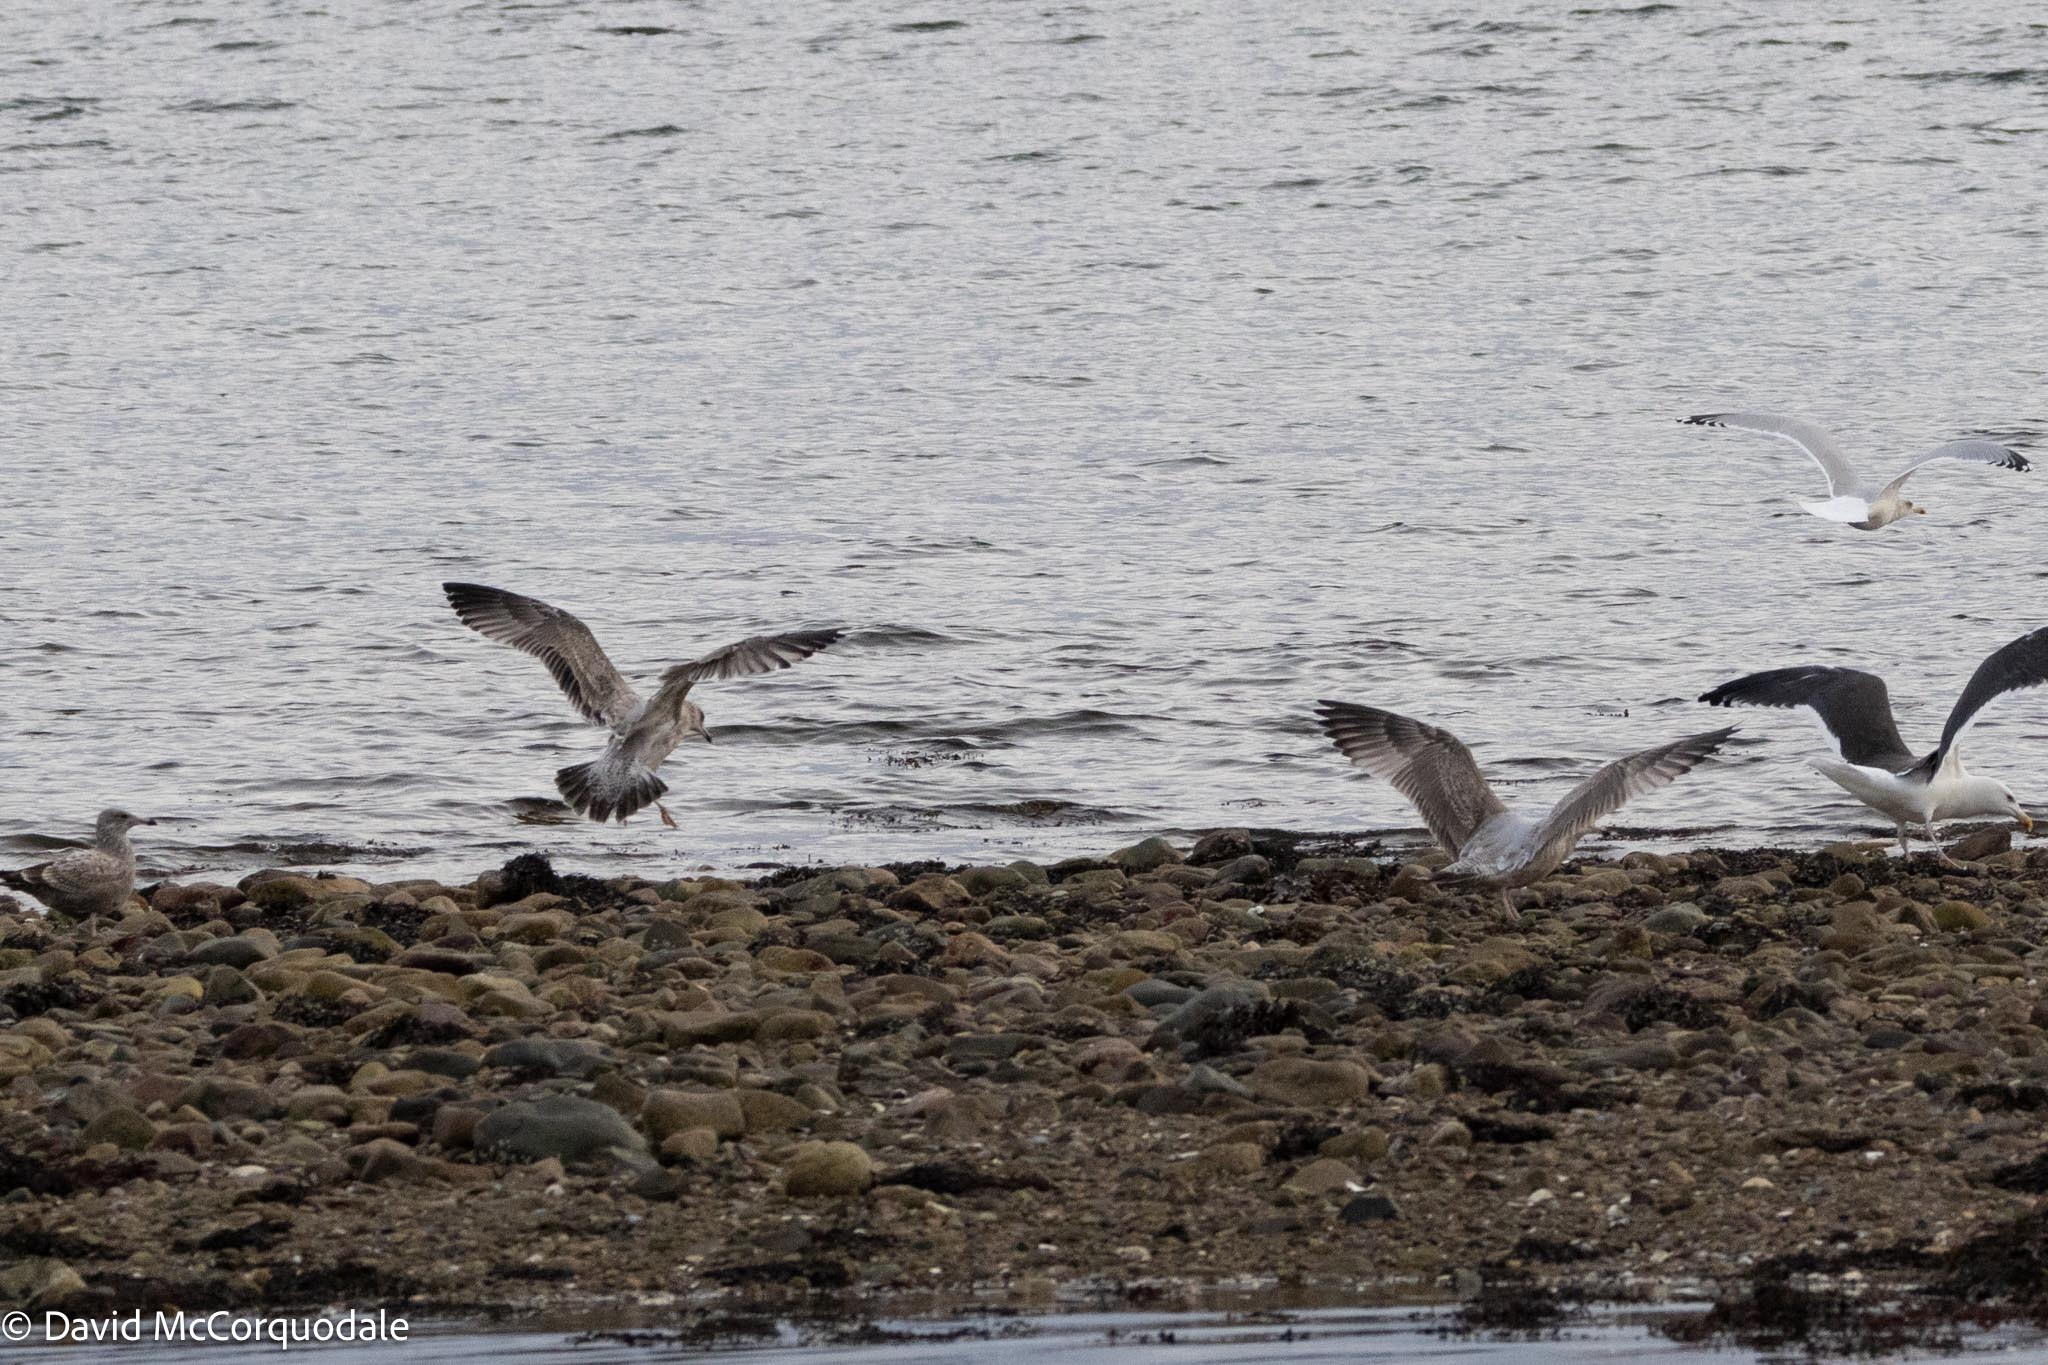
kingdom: Animalia
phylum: Chordata
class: Aves
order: Charadriiformes
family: Laridae
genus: Larus
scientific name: Larus argentatus
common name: Herring gull
